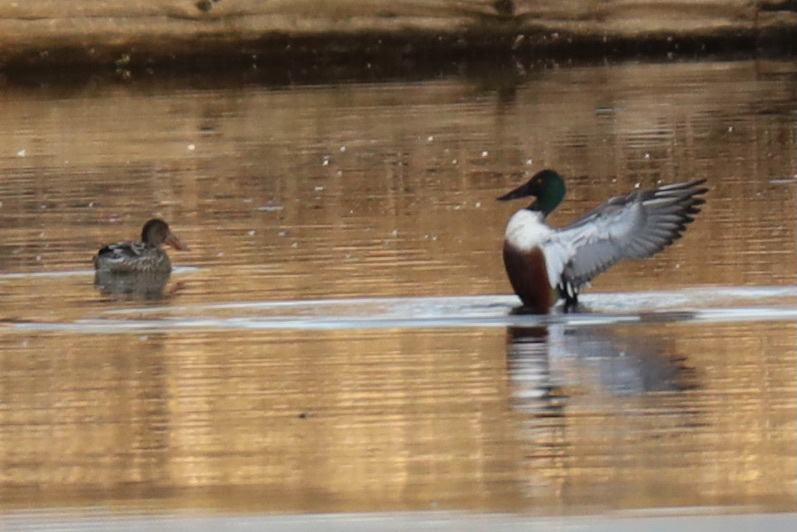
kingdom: Animalia
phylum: Chordata
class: Aves
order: Anseriformes
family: Anatidae
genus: Spatula
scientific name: Spatula clypeata
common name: Northern shoveler
